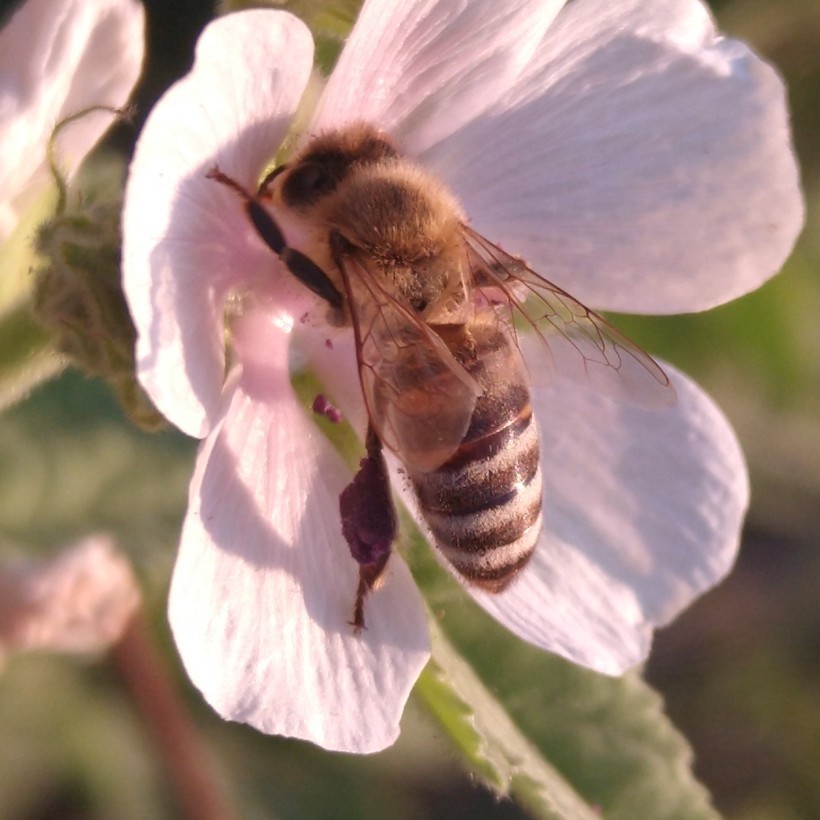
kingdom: Animalia
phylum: Arthropoda
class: Insecta
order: Hymenoptera
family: Apidae
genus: Apis
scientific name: Apis mellifera
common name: Honey bee
